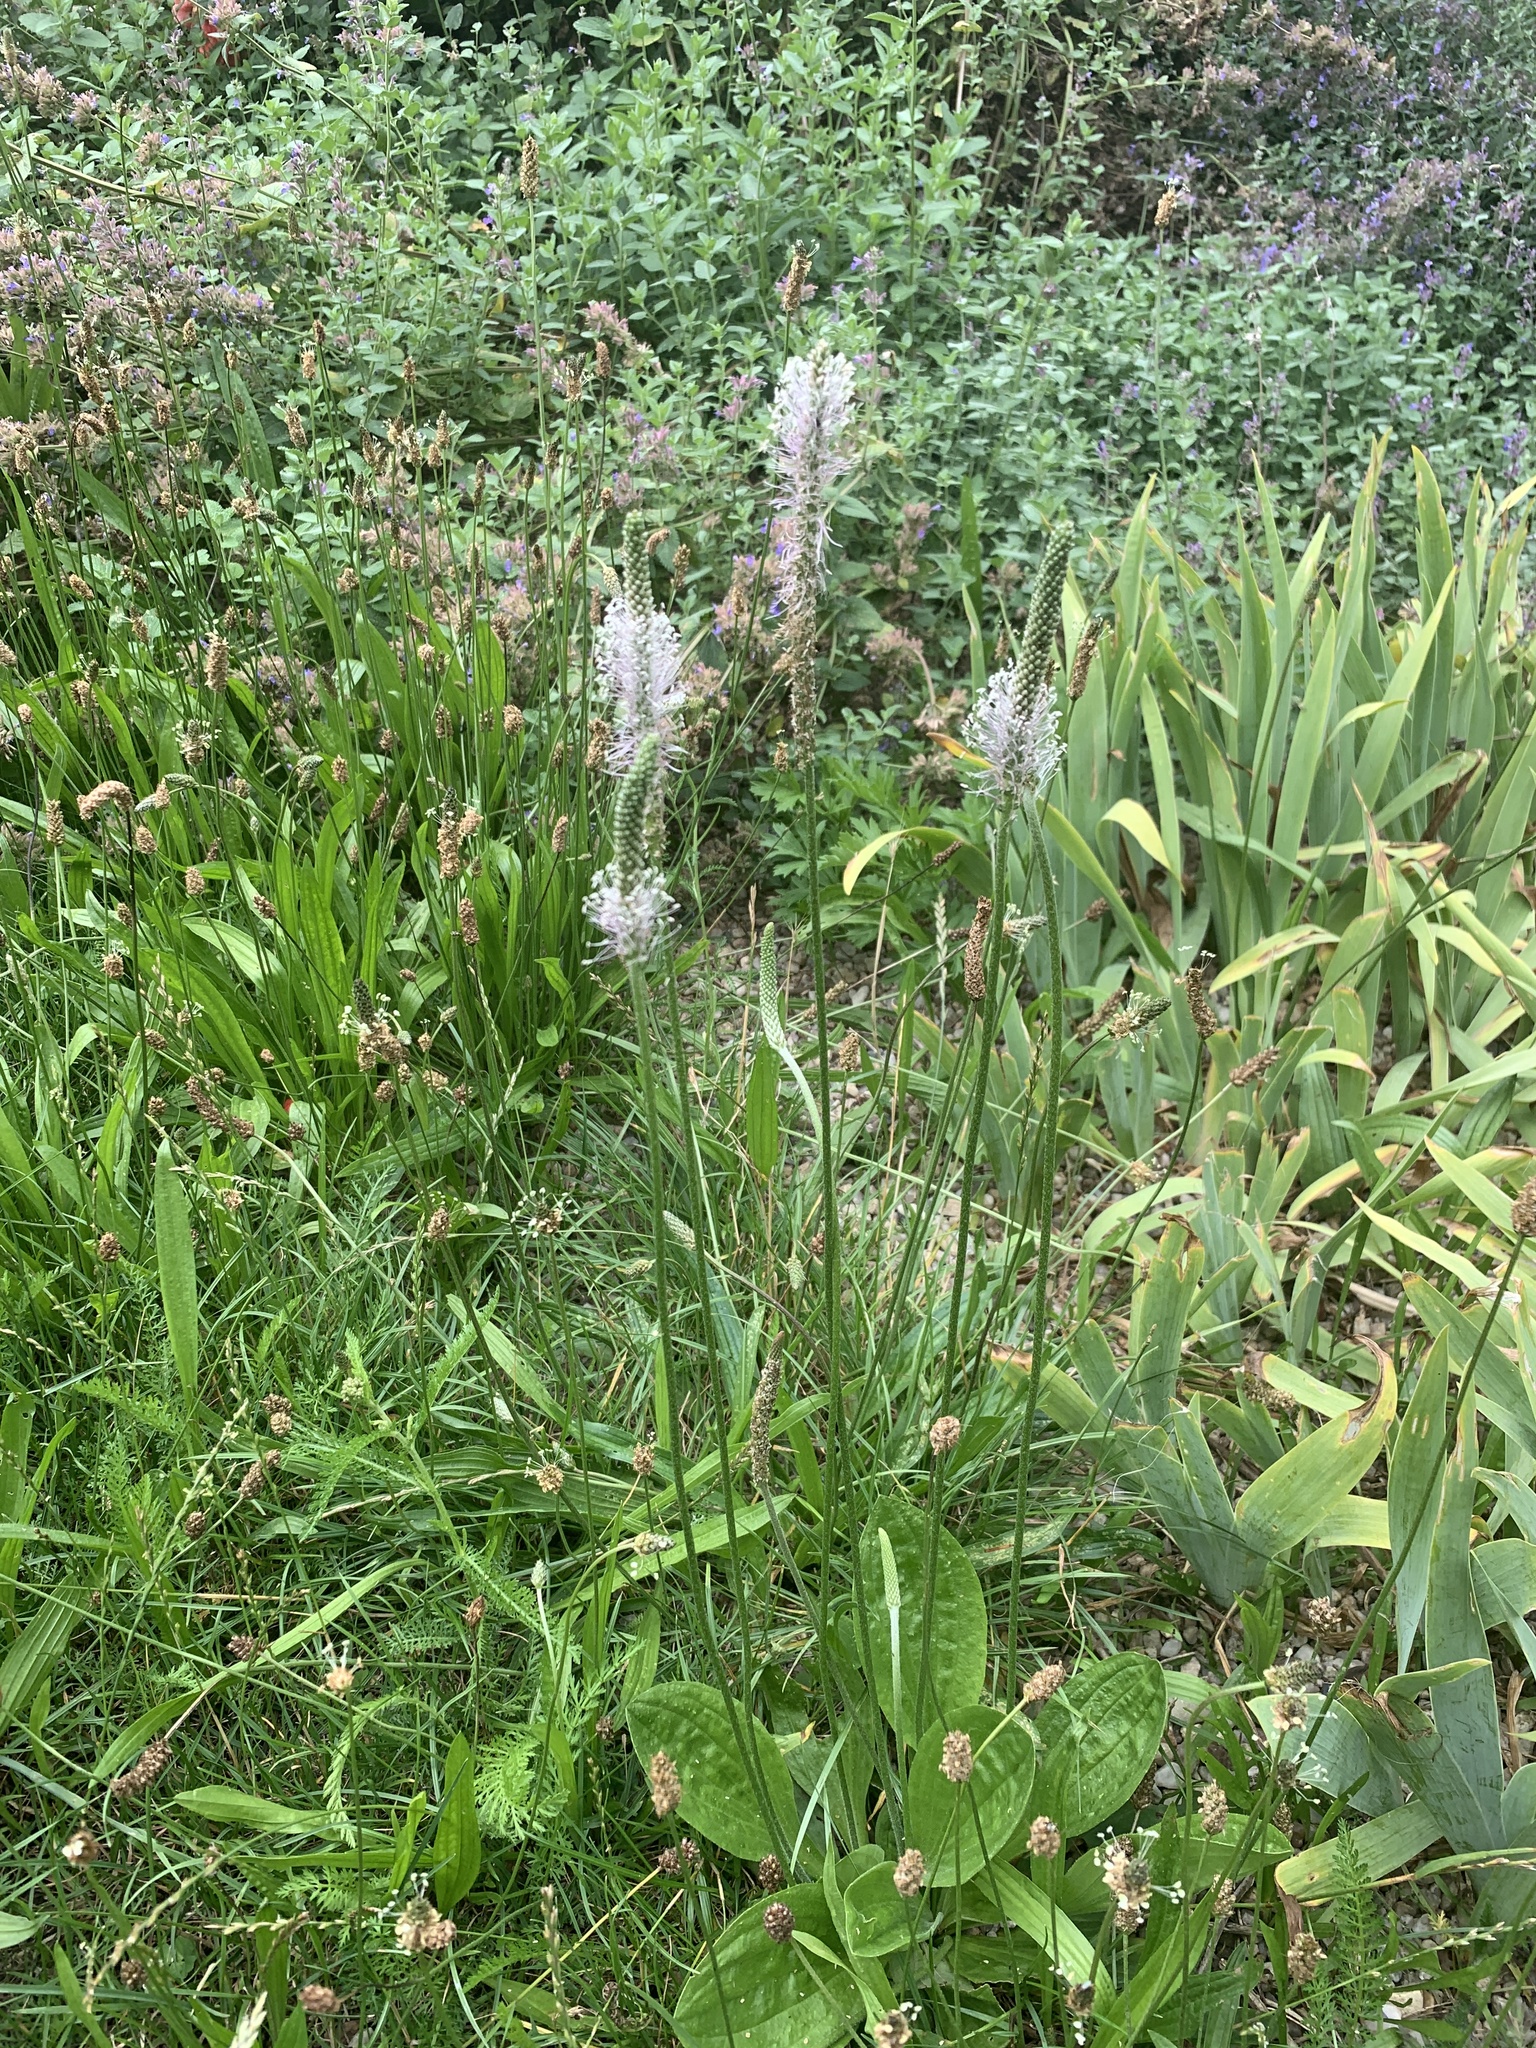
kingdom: Plantae
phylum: Tracheophyta
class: Magnoliopsida
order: Lamiales
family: Plantaginaceae
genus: Plantago
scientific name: Plantago media
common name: Hoary plantain
